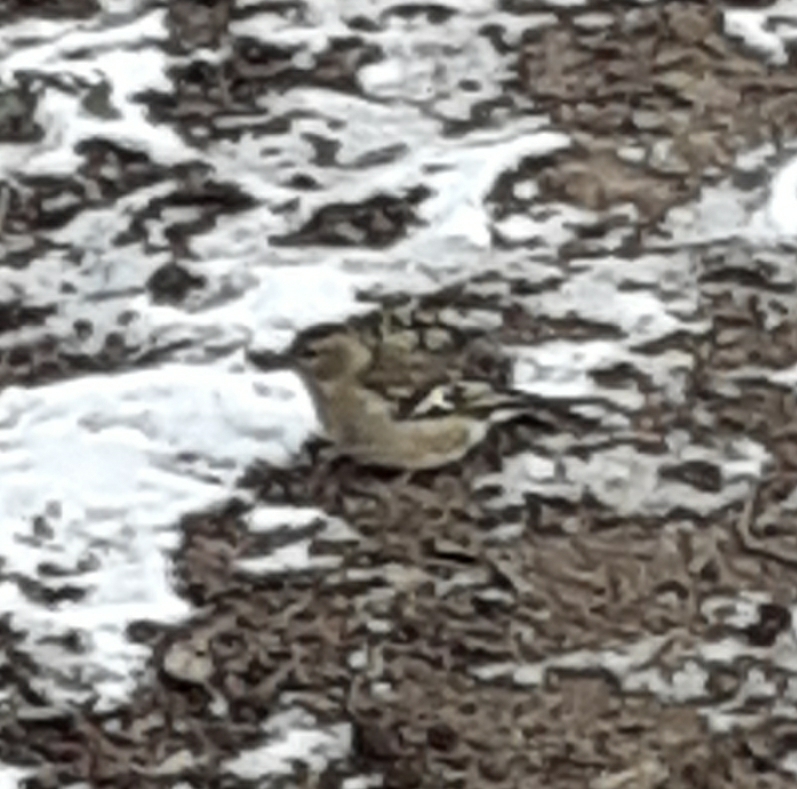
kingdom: Animalia
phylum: Chordata
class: Aves
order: Passeriformes
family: Fringillidae
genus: Fringilla
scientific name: Fringilla coelebs
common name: Common chaffinch
